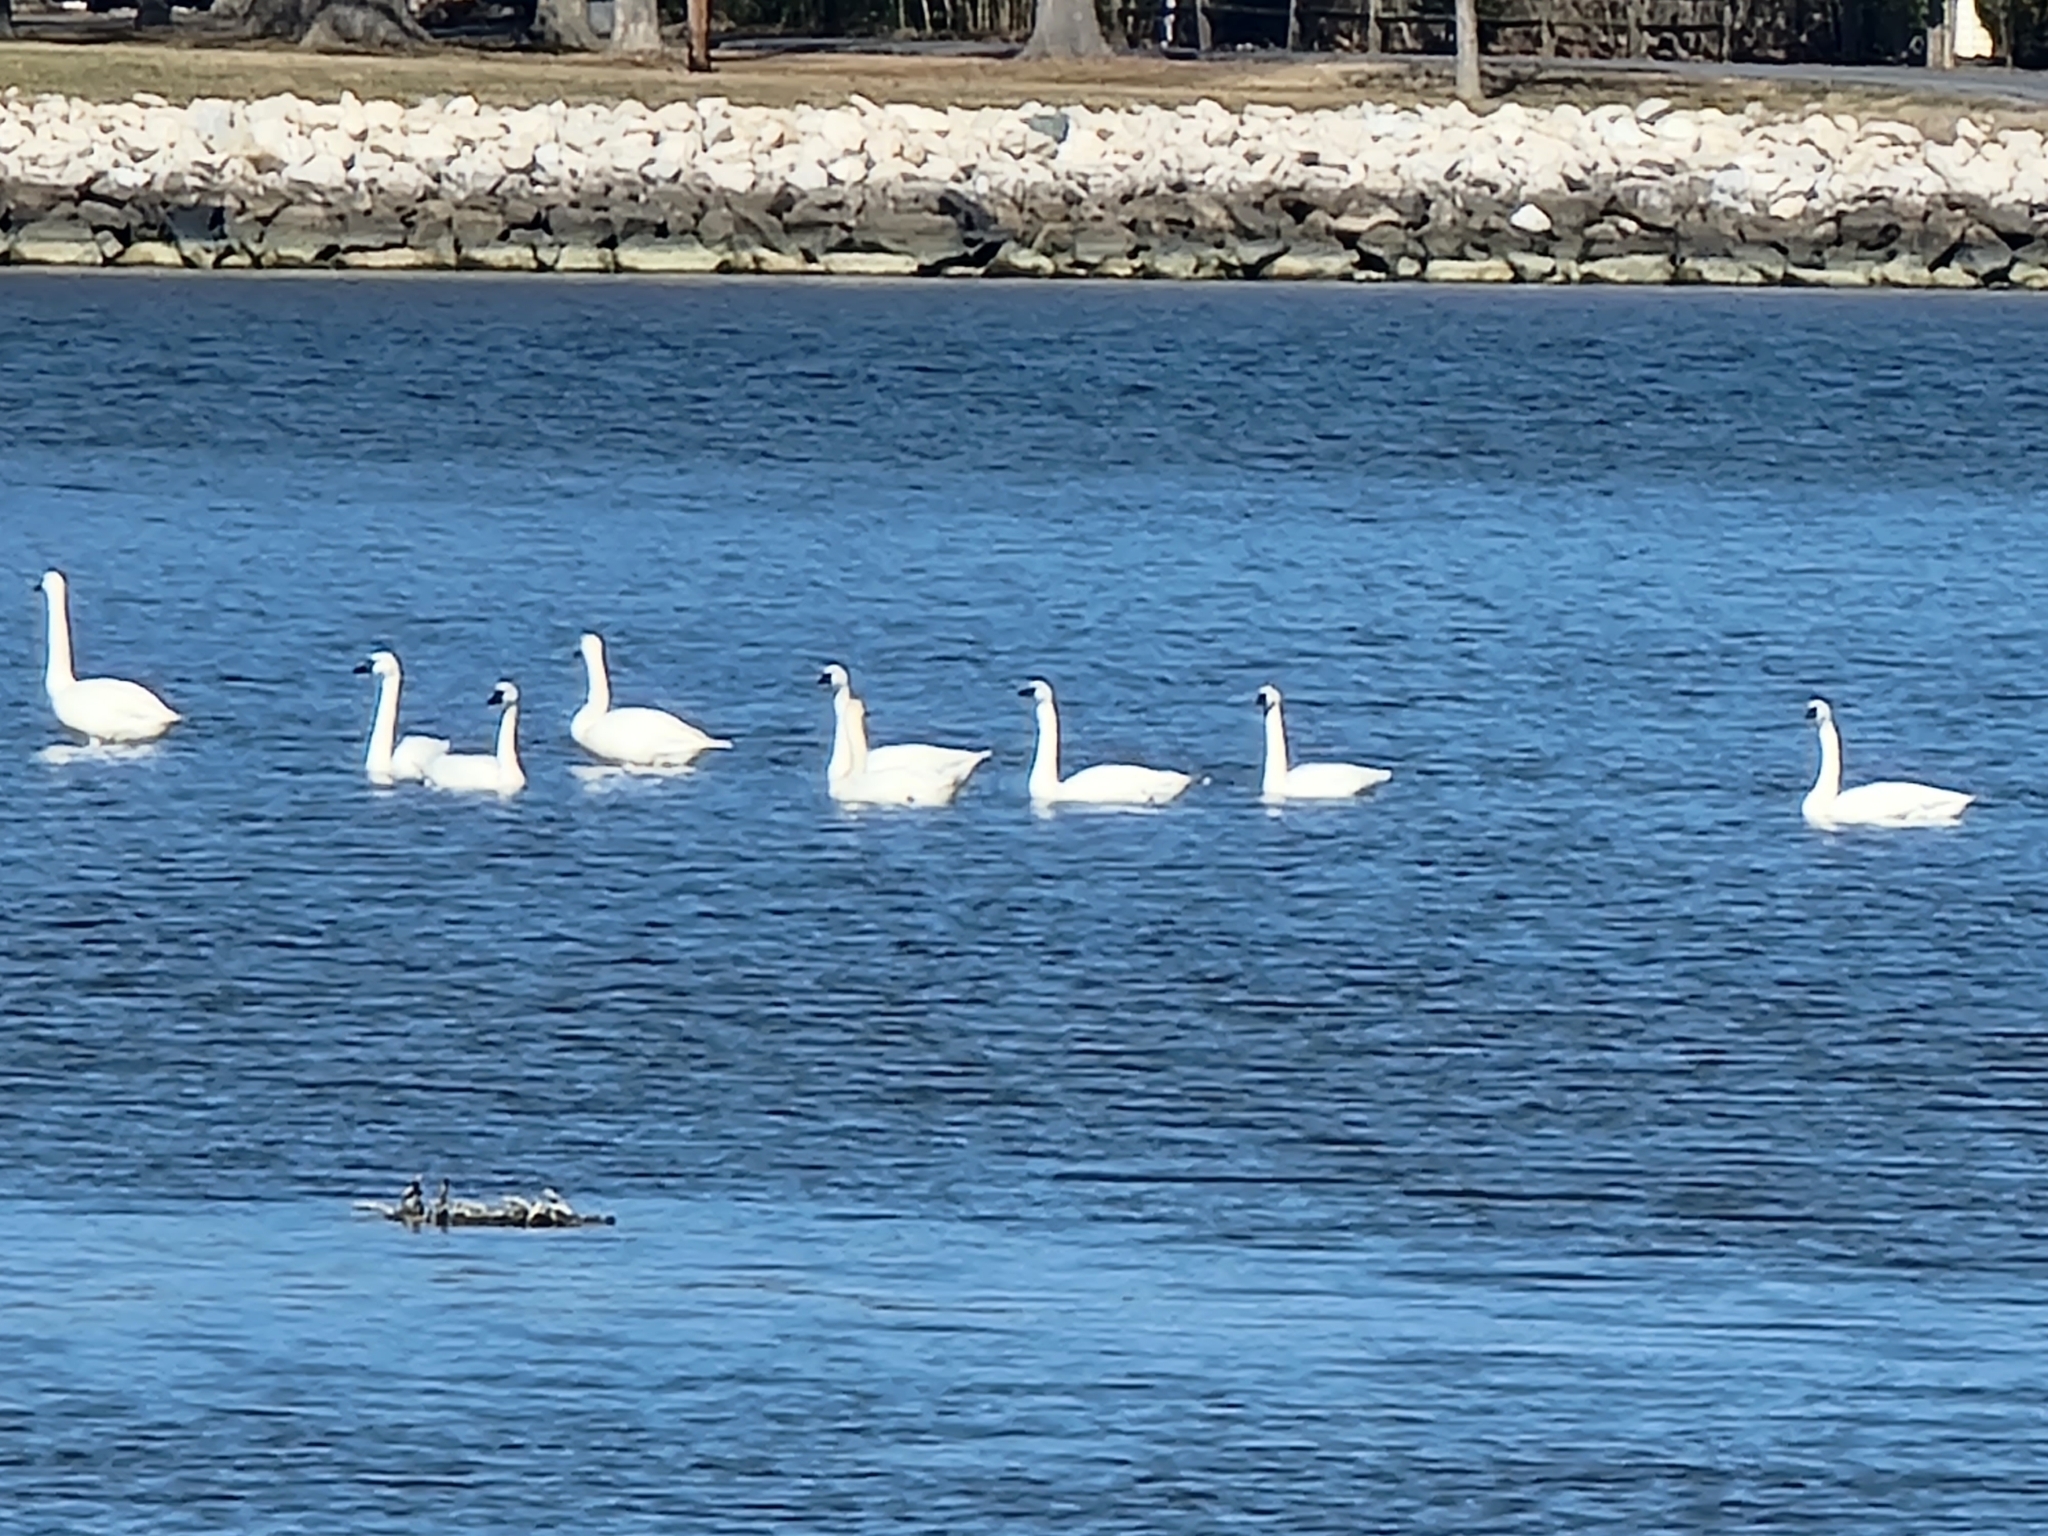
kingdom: Animalia
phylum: Chordata
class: Aves
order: Anseriformes
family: Anatidae
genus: Cygnus
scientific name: Cygnus columbianus
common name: Tundra swan
